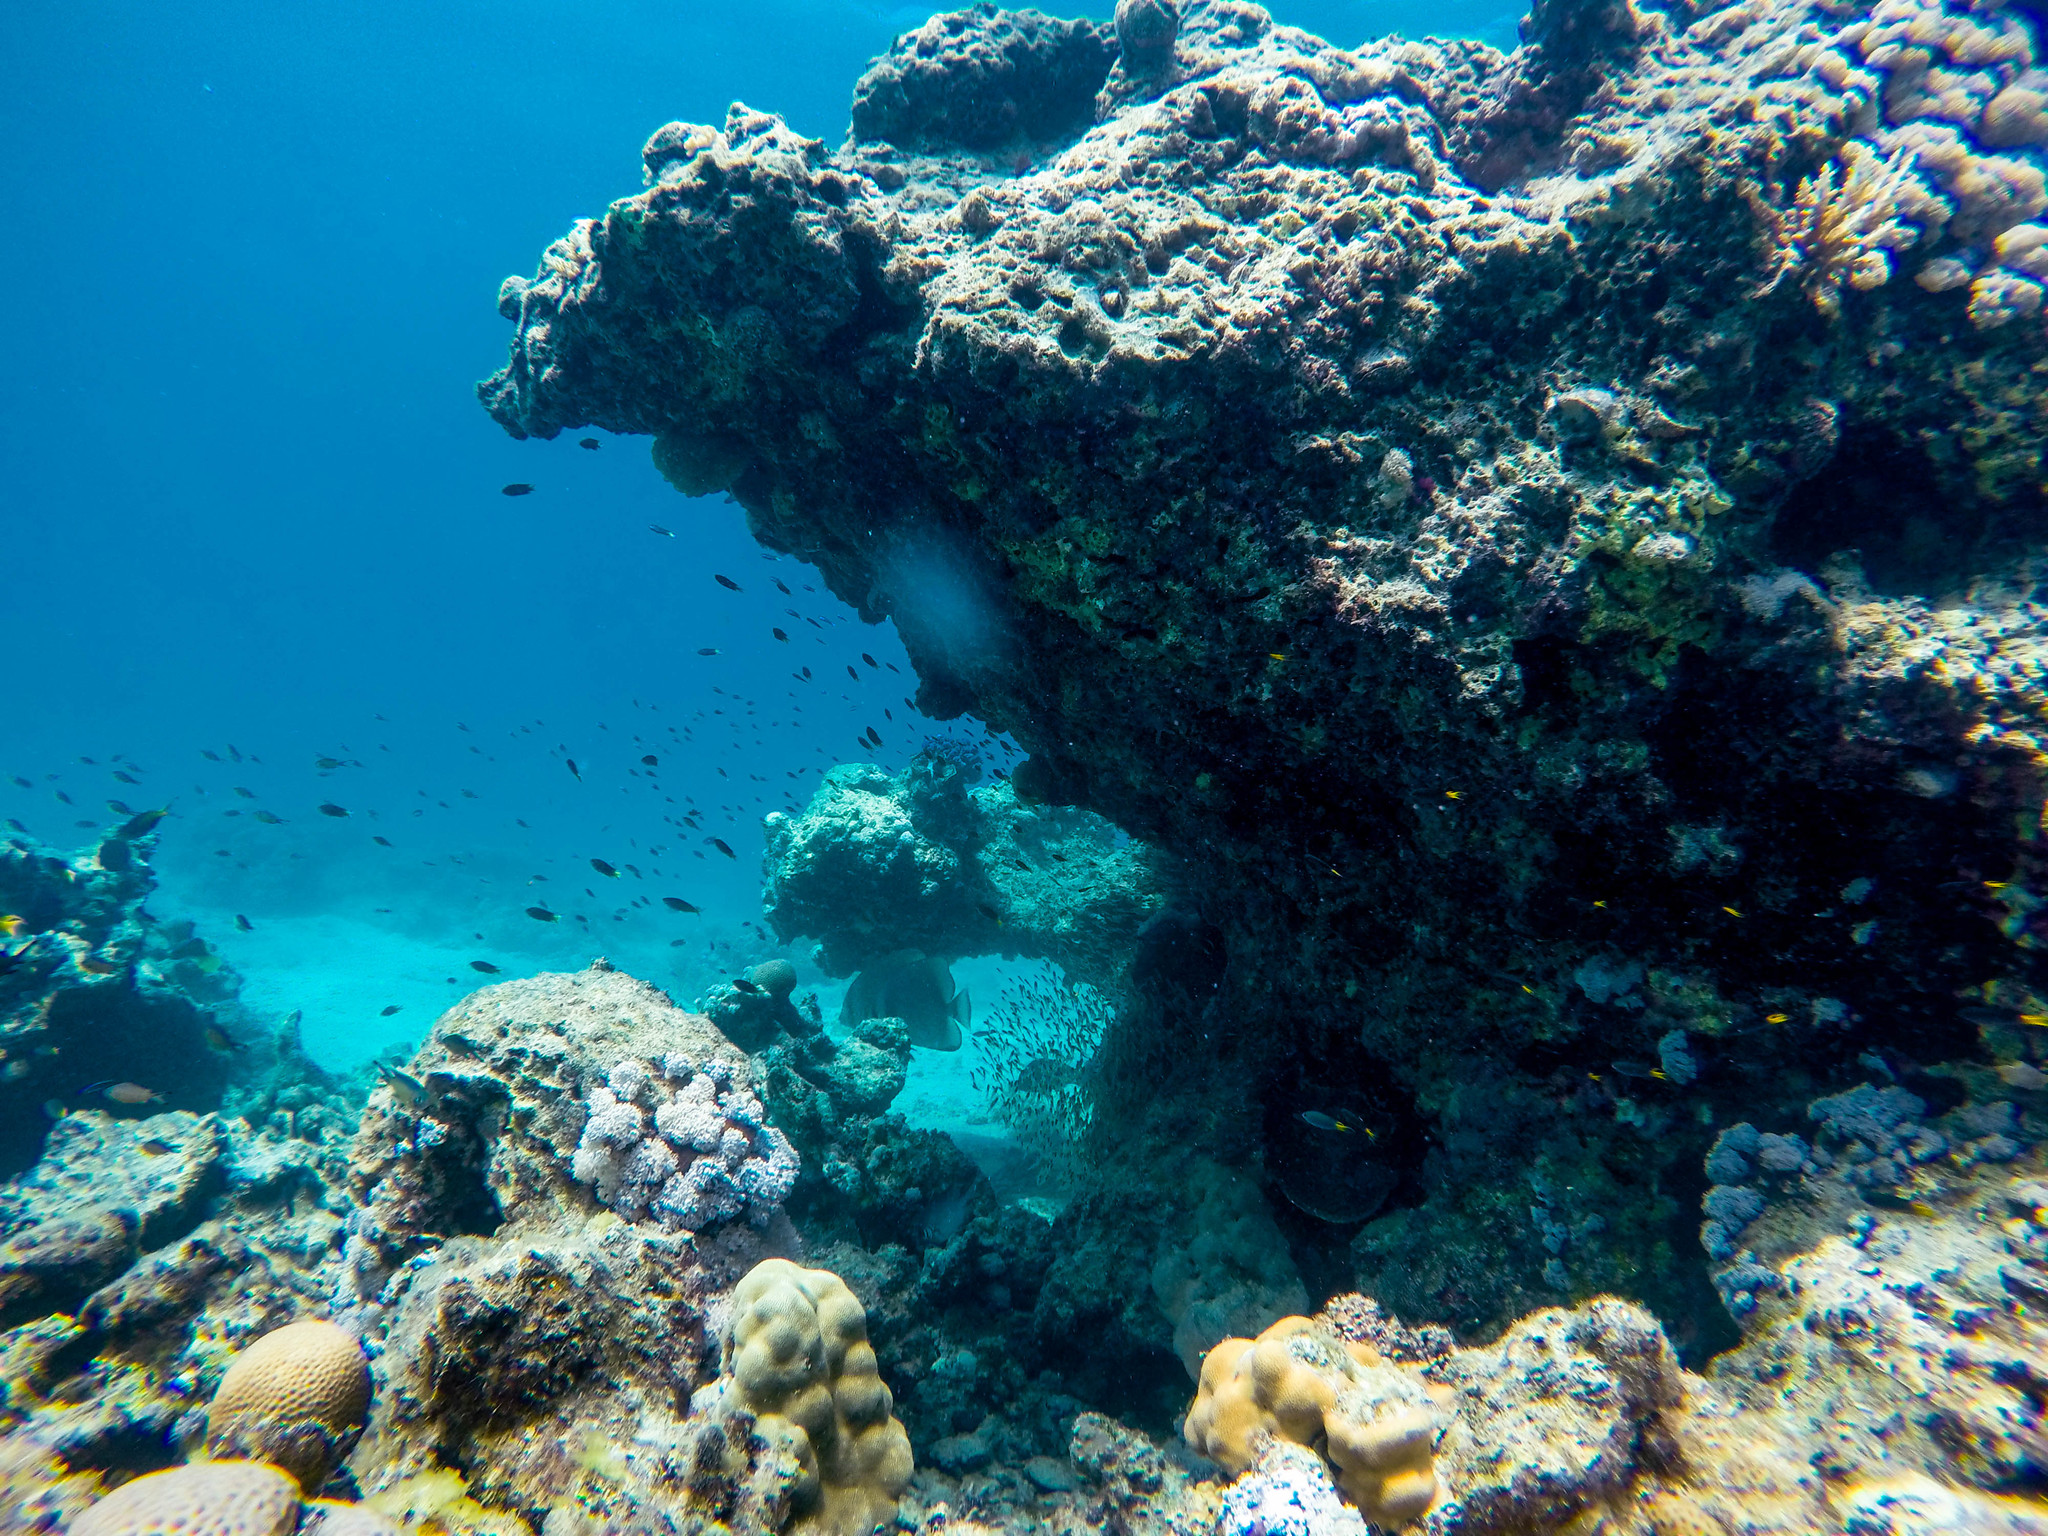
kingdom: Animalia
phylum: Chordata
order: Perciformes
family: Ephippidae
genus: Platax
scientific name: Platax orbicularis
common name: Batfish
